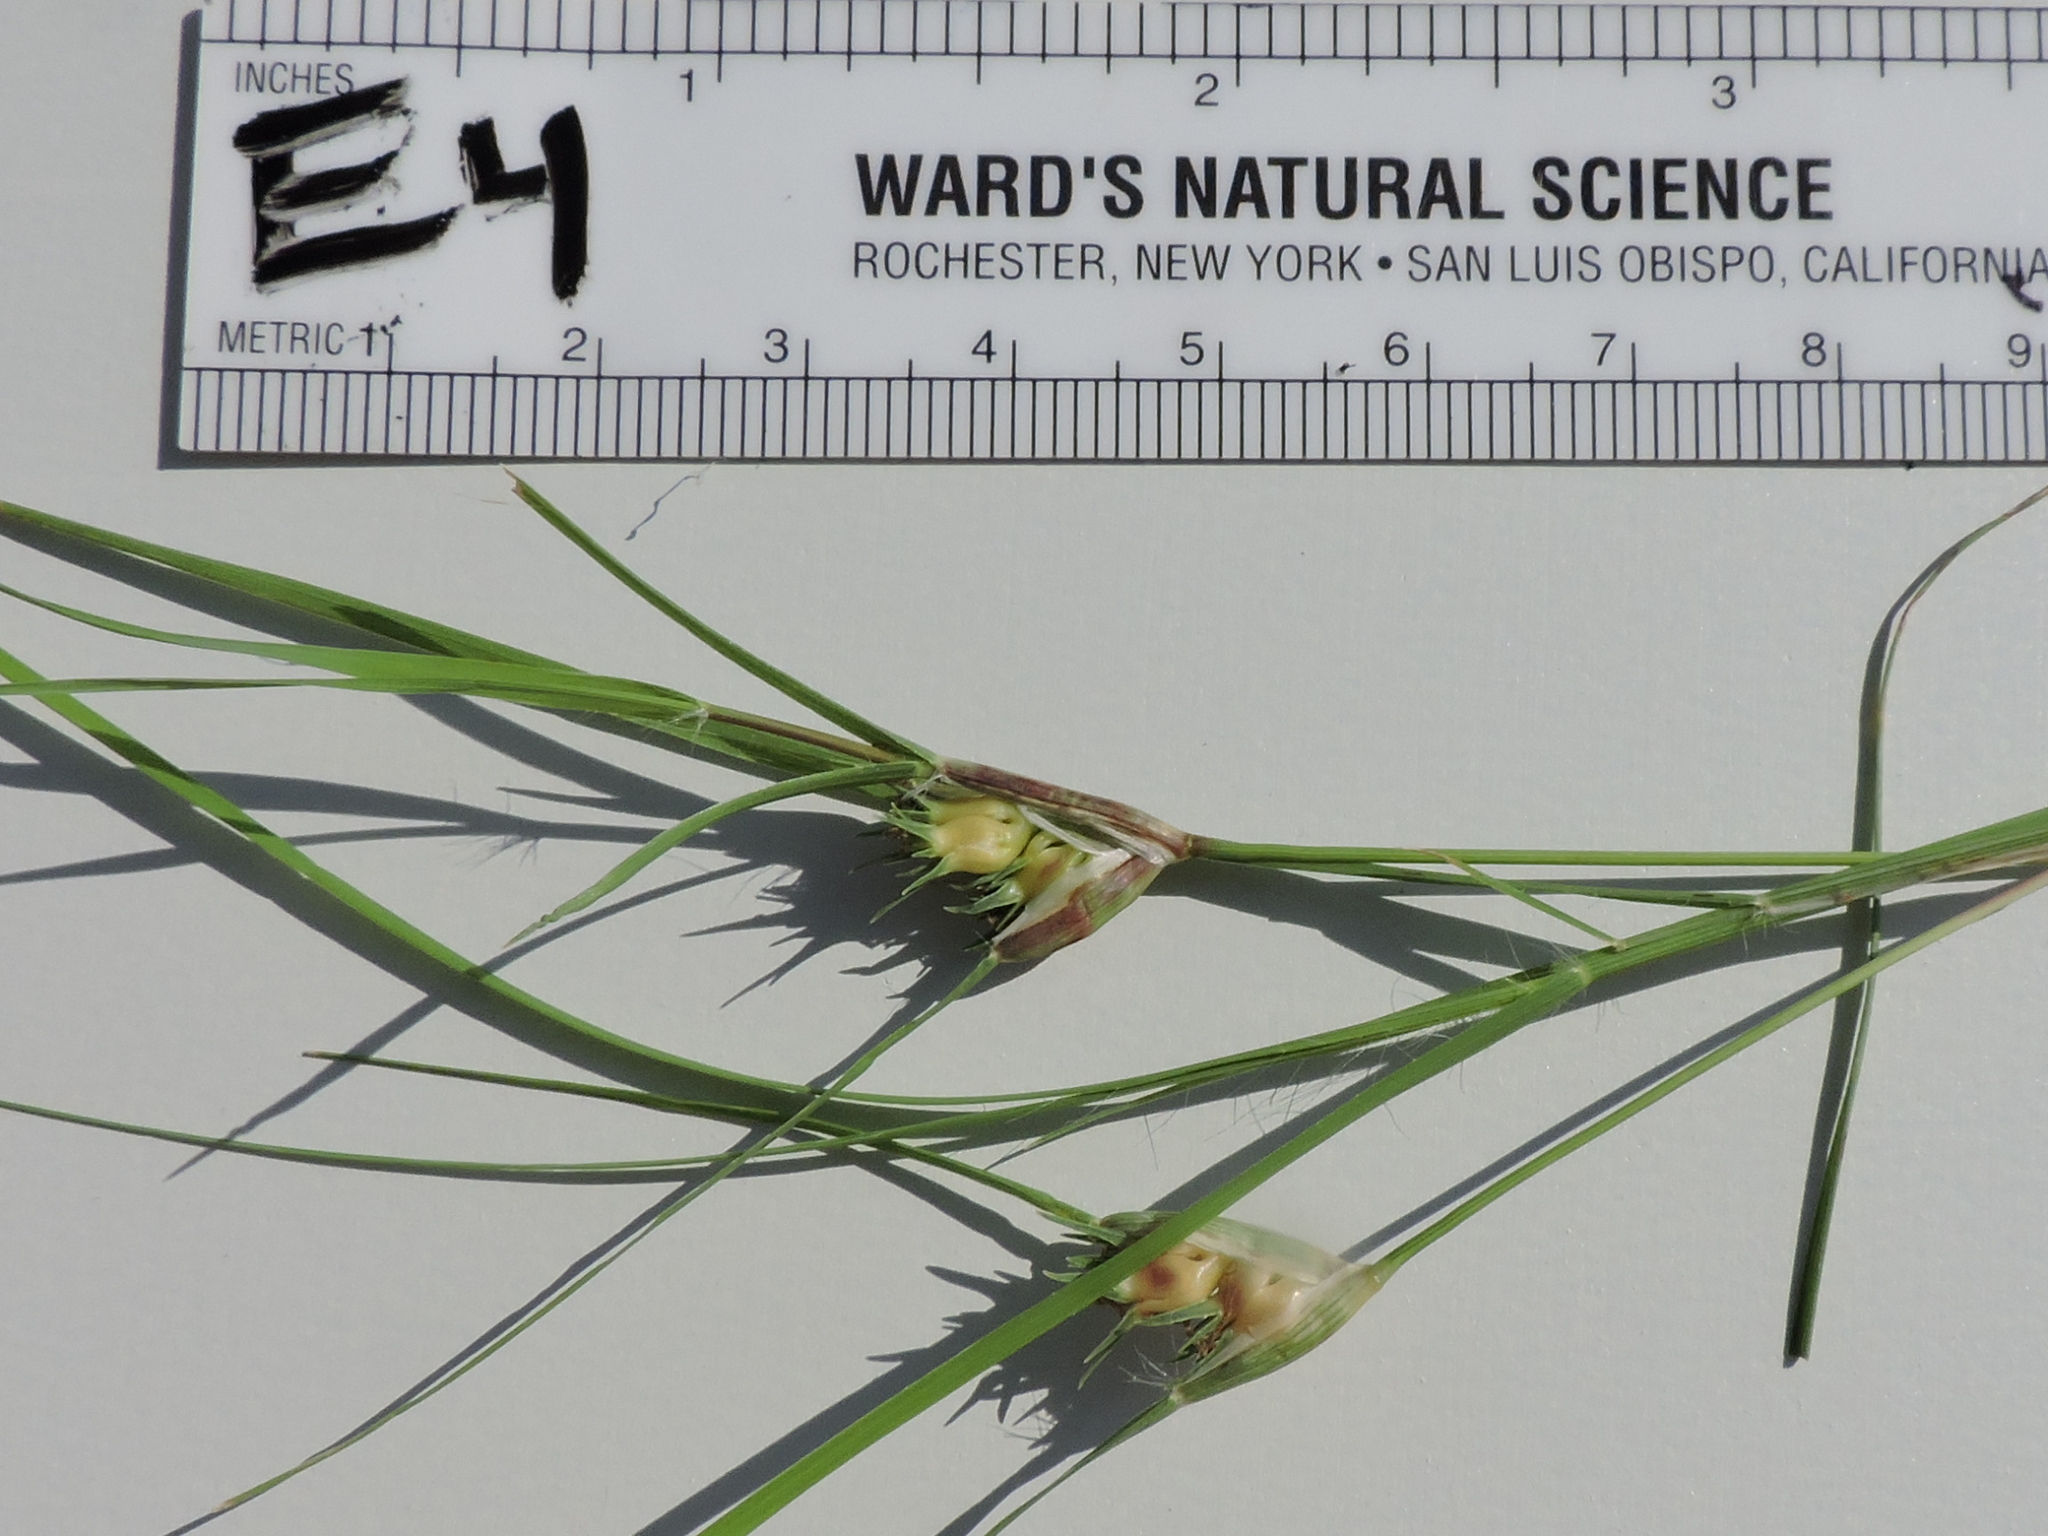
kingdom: Plantae
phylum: Tracheophyta
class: Liliopsida
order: Poales
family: Poaceae
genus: Bouteloua
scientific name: Bouteloua dactyloides
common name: Buffalo grass
